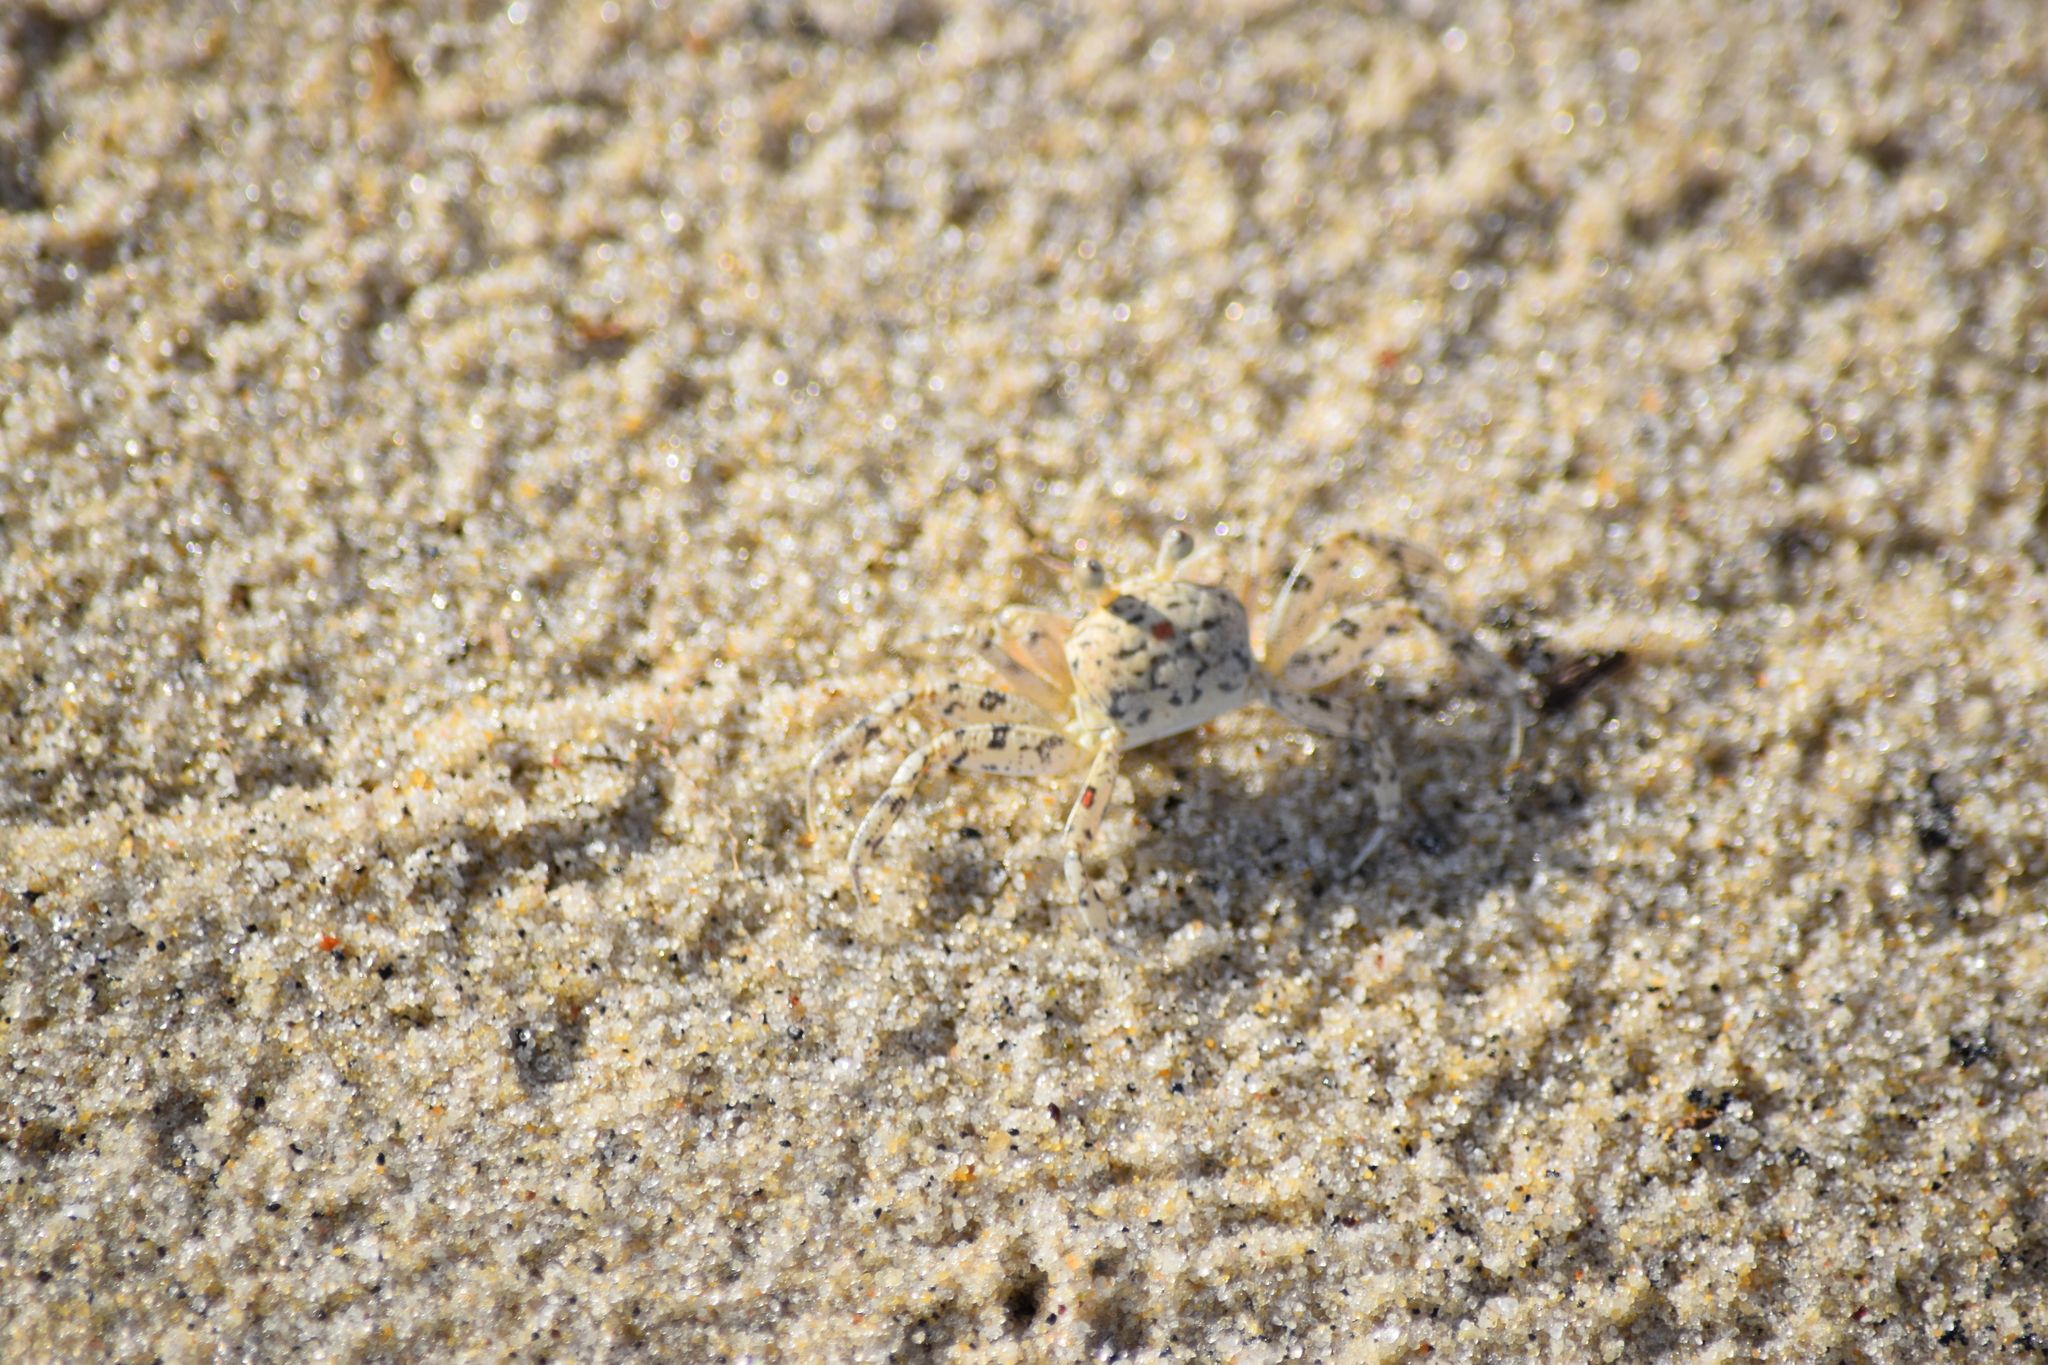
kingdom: Animalia
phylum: Arthropoda
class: Malacostraca
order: Decapoda
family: Ocypodidae
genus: Ocypode
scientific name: Ocypode quadrata
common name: Ghost crab
